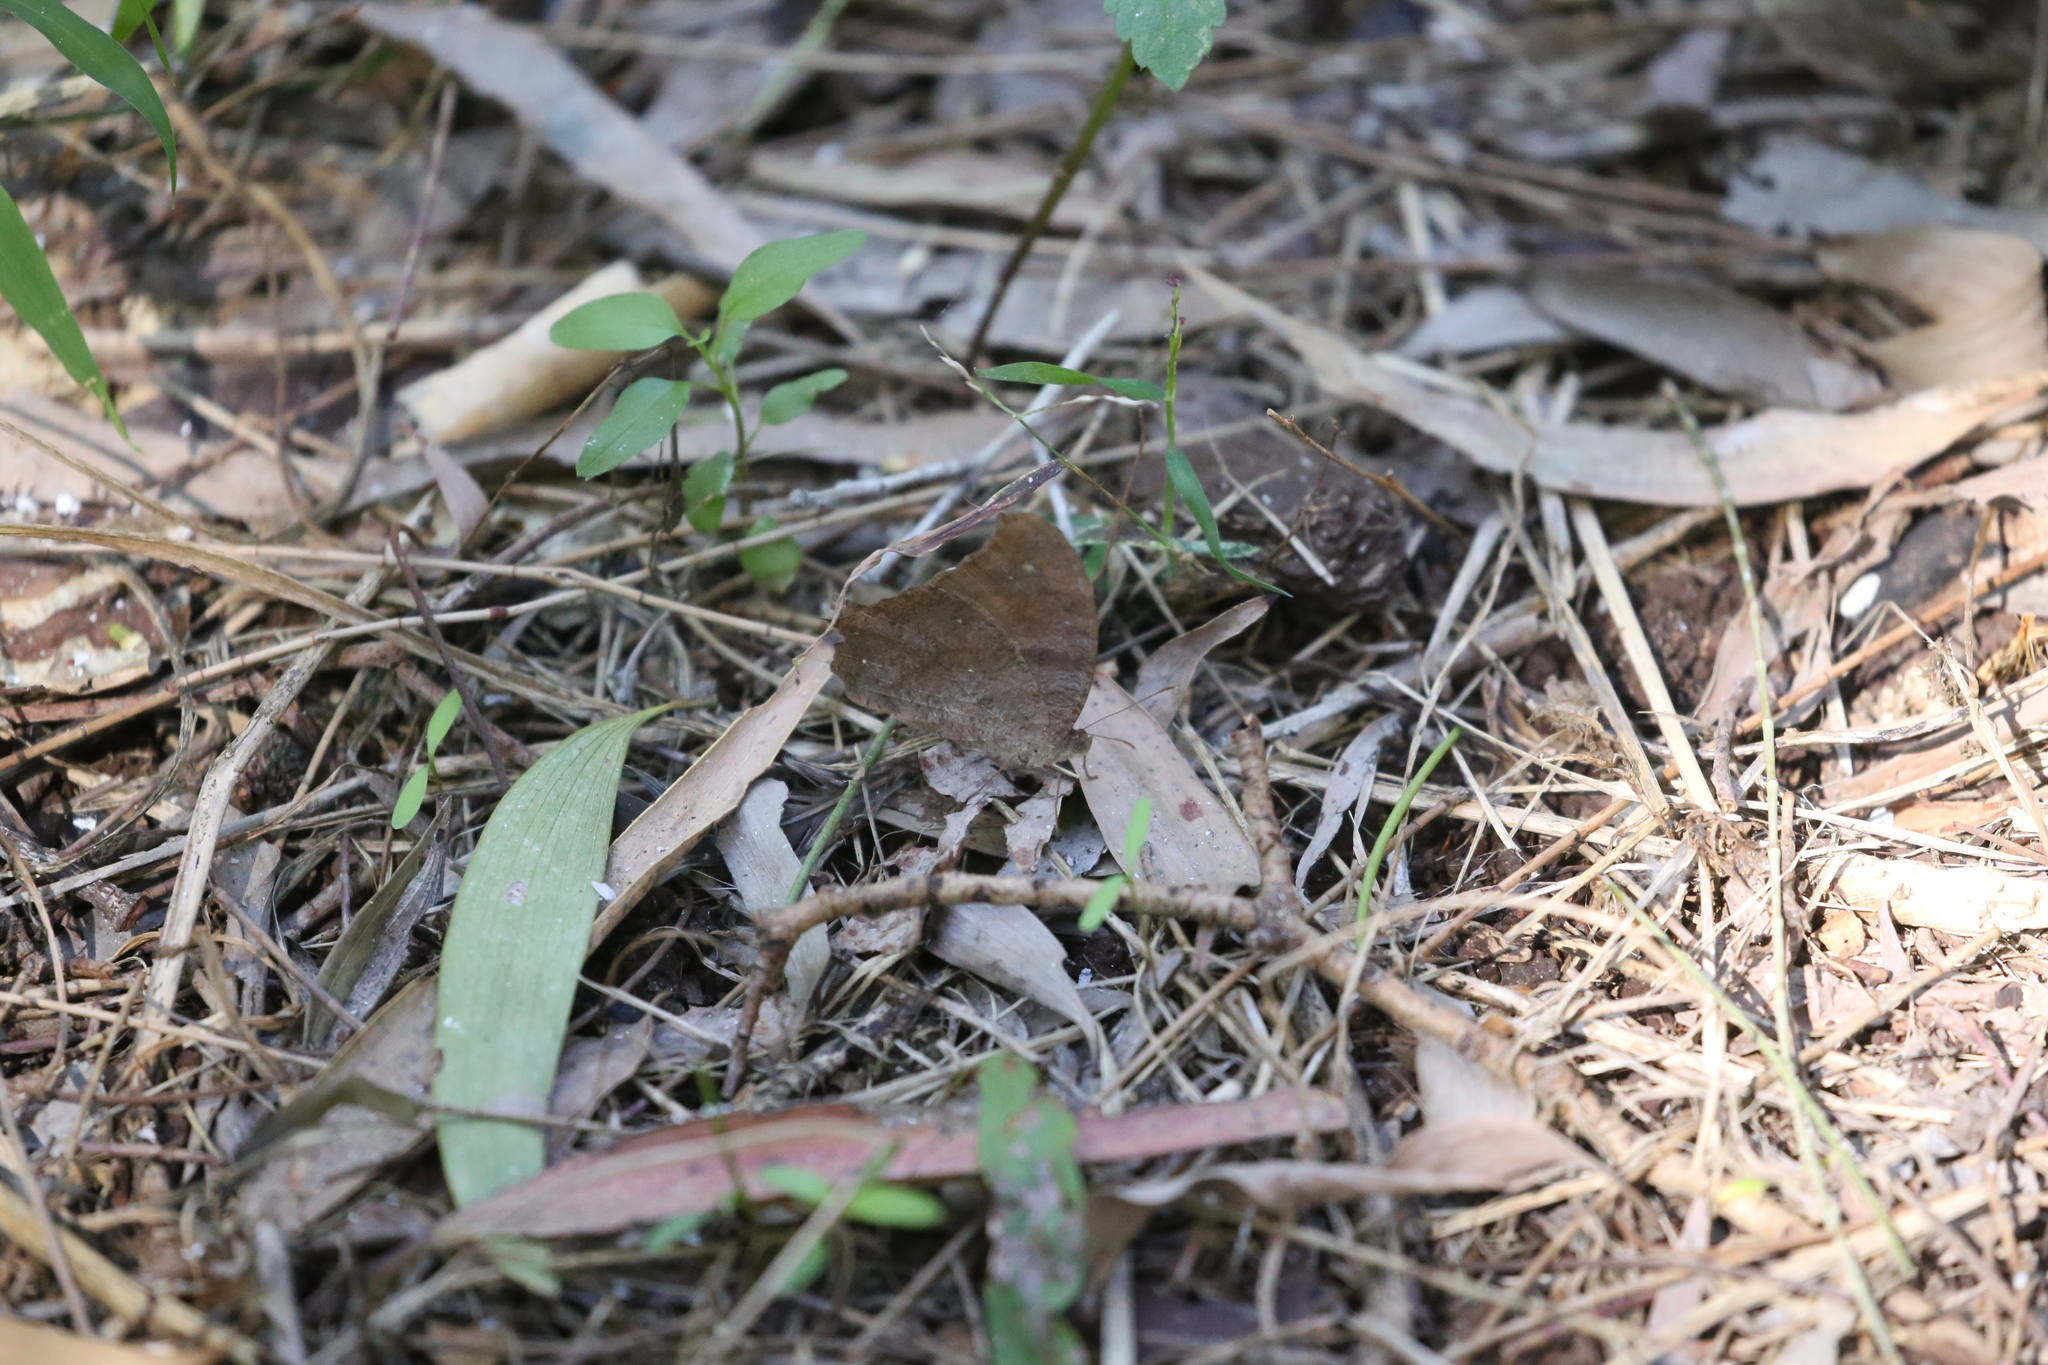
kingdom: Animalia
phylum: Arthropoda
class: Insecta
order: Lepidoptera
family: Nymphalidae
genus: Melanitis
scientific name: Melanitis leda
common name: Twilight brown
